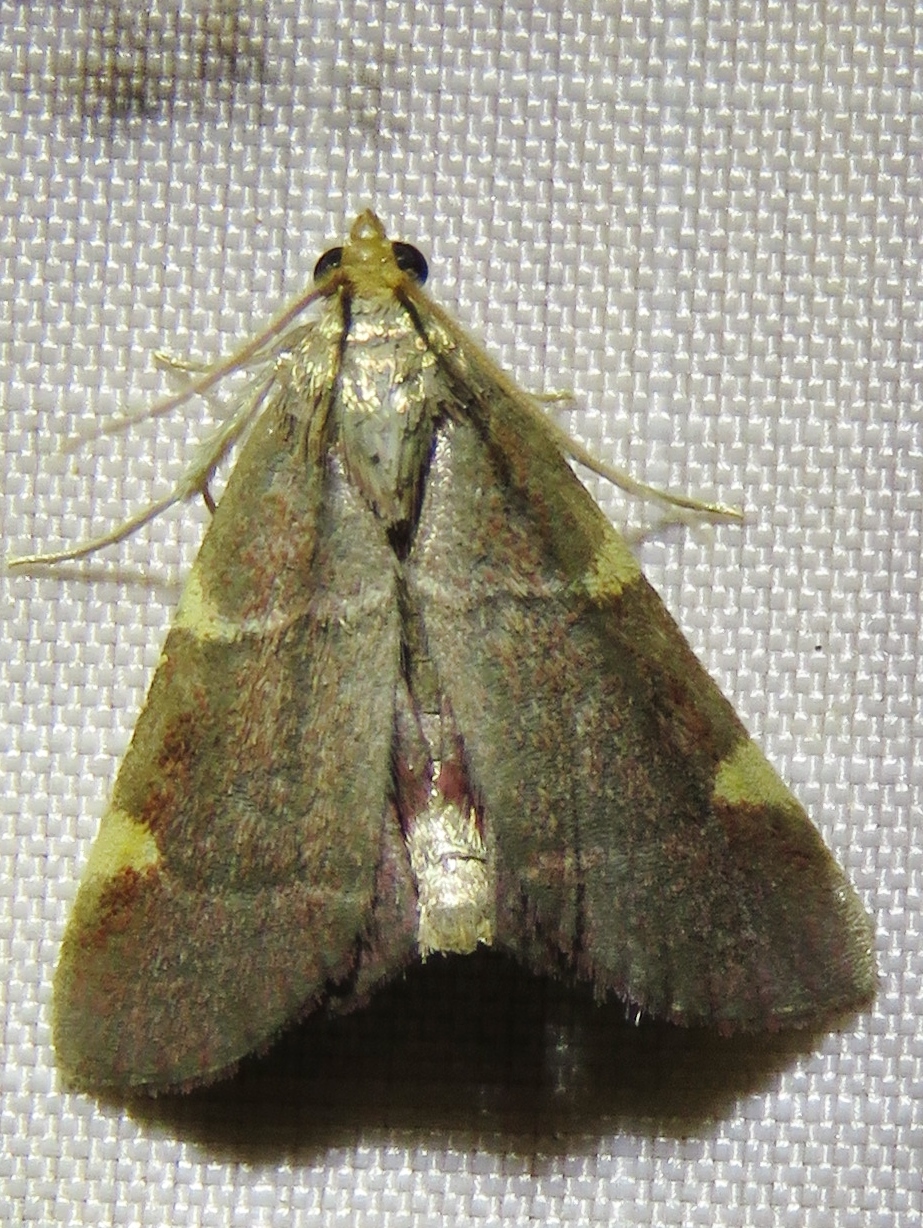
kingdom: Animalia
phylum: Arthropoda
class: Insecta
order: Lepidoptera
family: Pyralidae
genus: Hypsopygia
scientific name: Hypsopygia olinalis
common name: Yellow-fringed dolichomia moth
